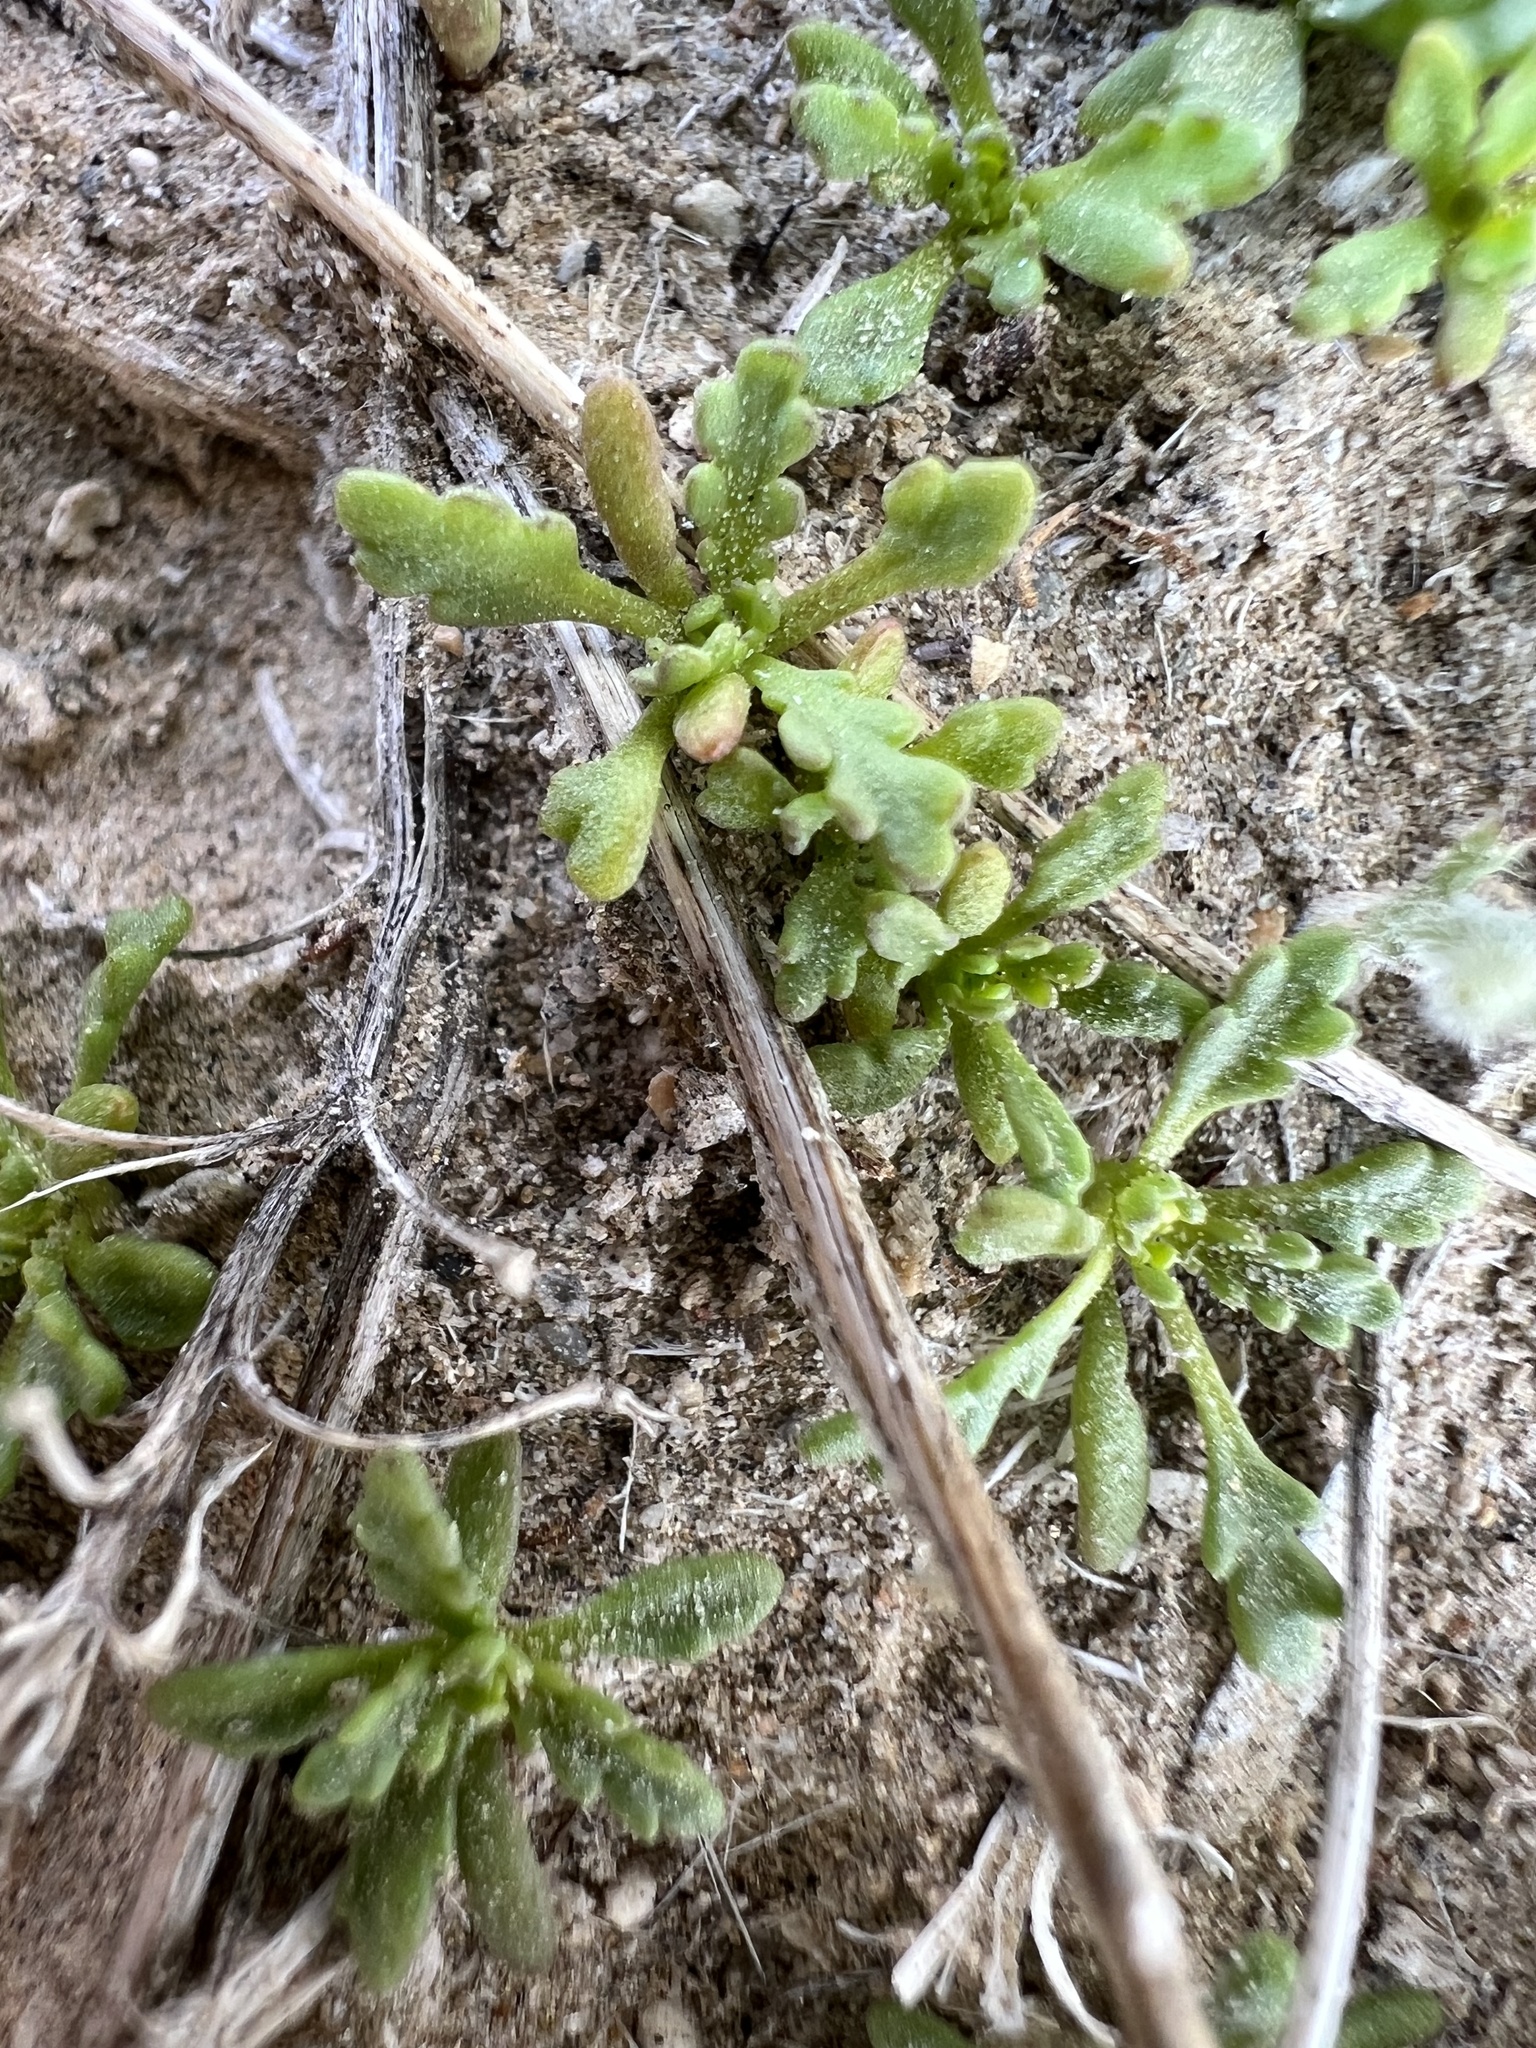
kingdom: Plantae
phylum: Tracheophyta
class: Magnoliopsida
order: Brassicales
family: Brassicaceae
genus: Lepidium
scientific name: Lepidium flavum
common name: Yellow pepperwort
